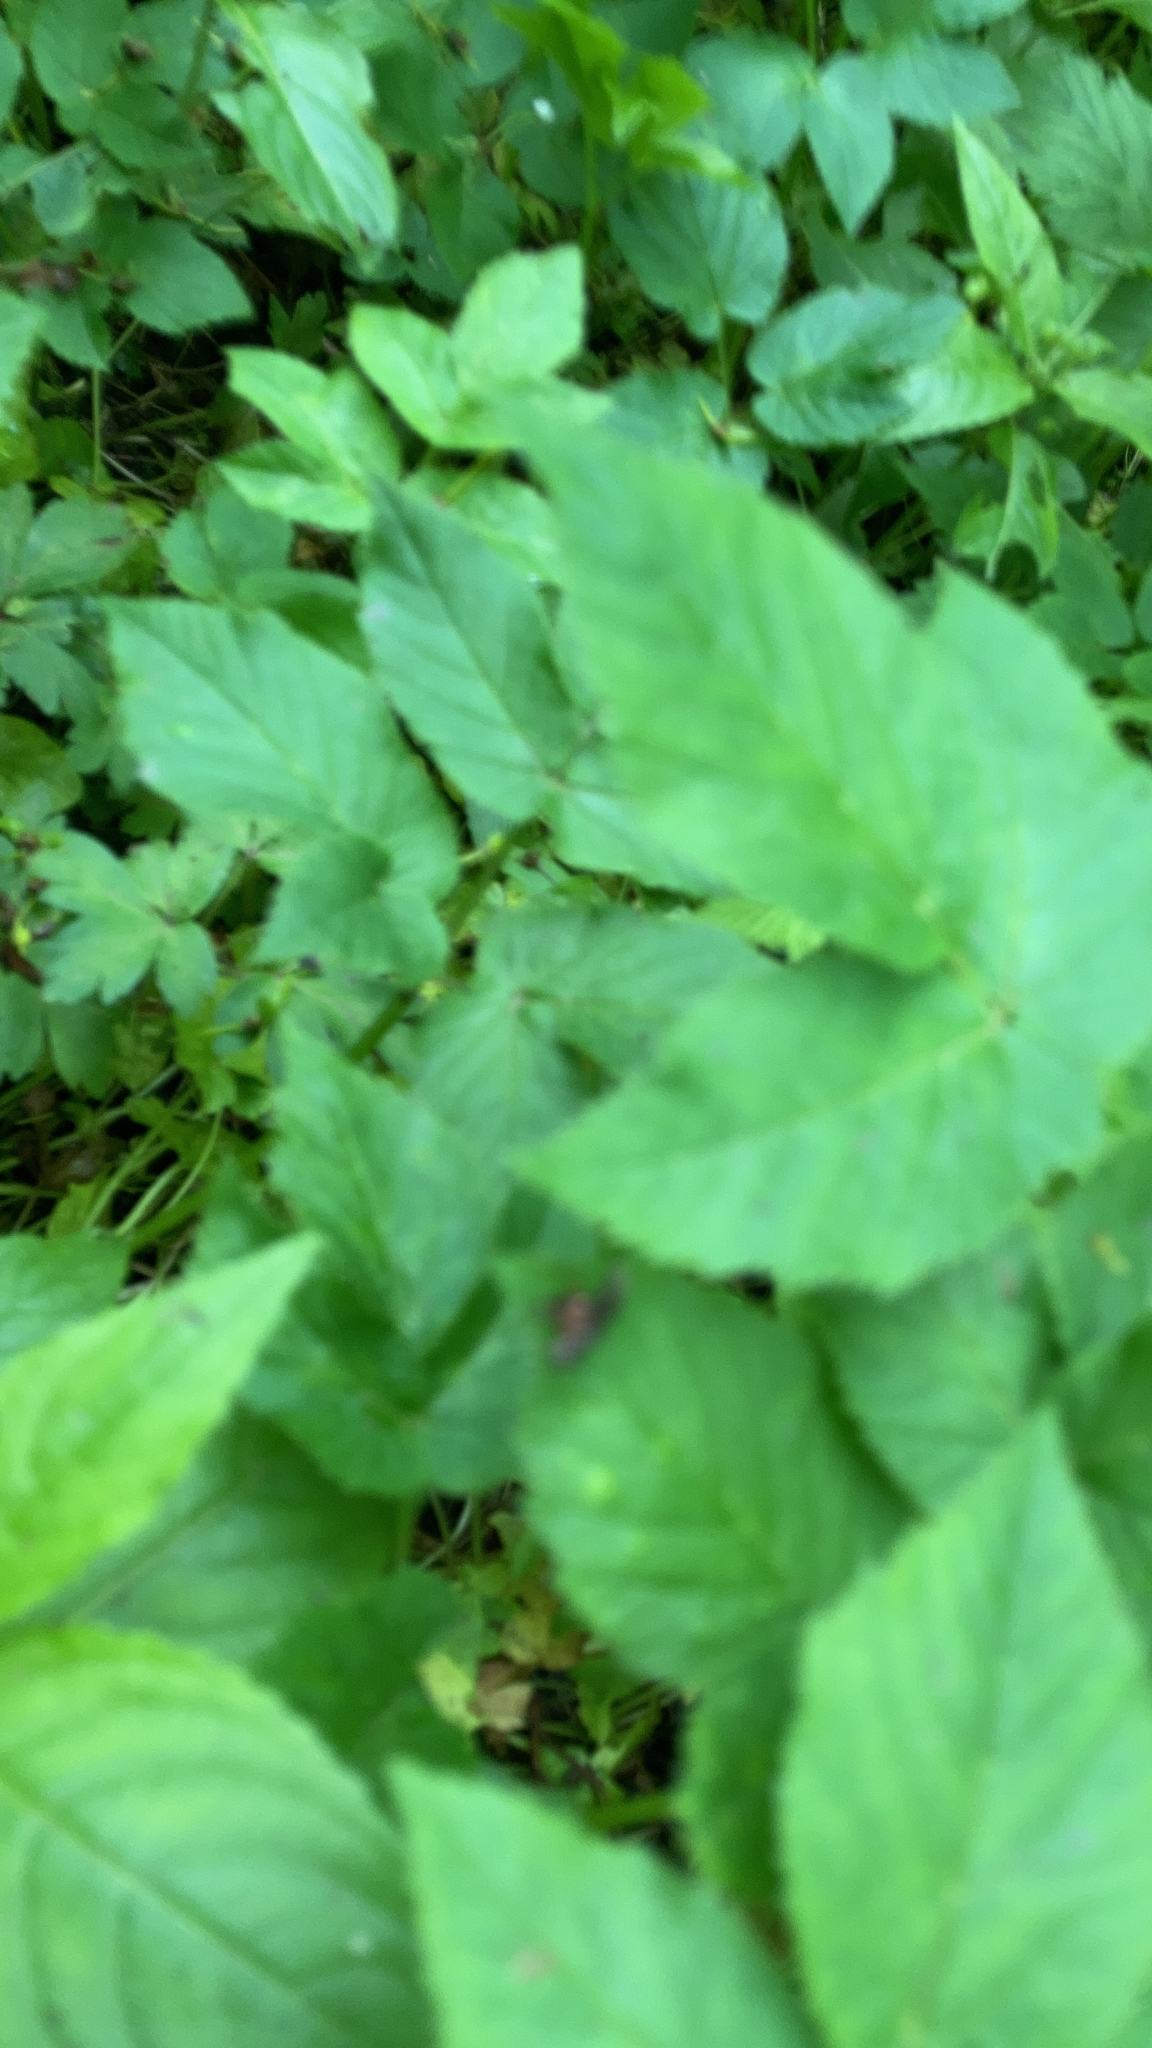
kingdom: Plantae
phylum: Tracheophyta
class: Magnoliopsida
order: Apiales
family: Apiaceae
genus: Aegopodium
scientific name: Aegopodium podagraria
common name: Ground-elder
